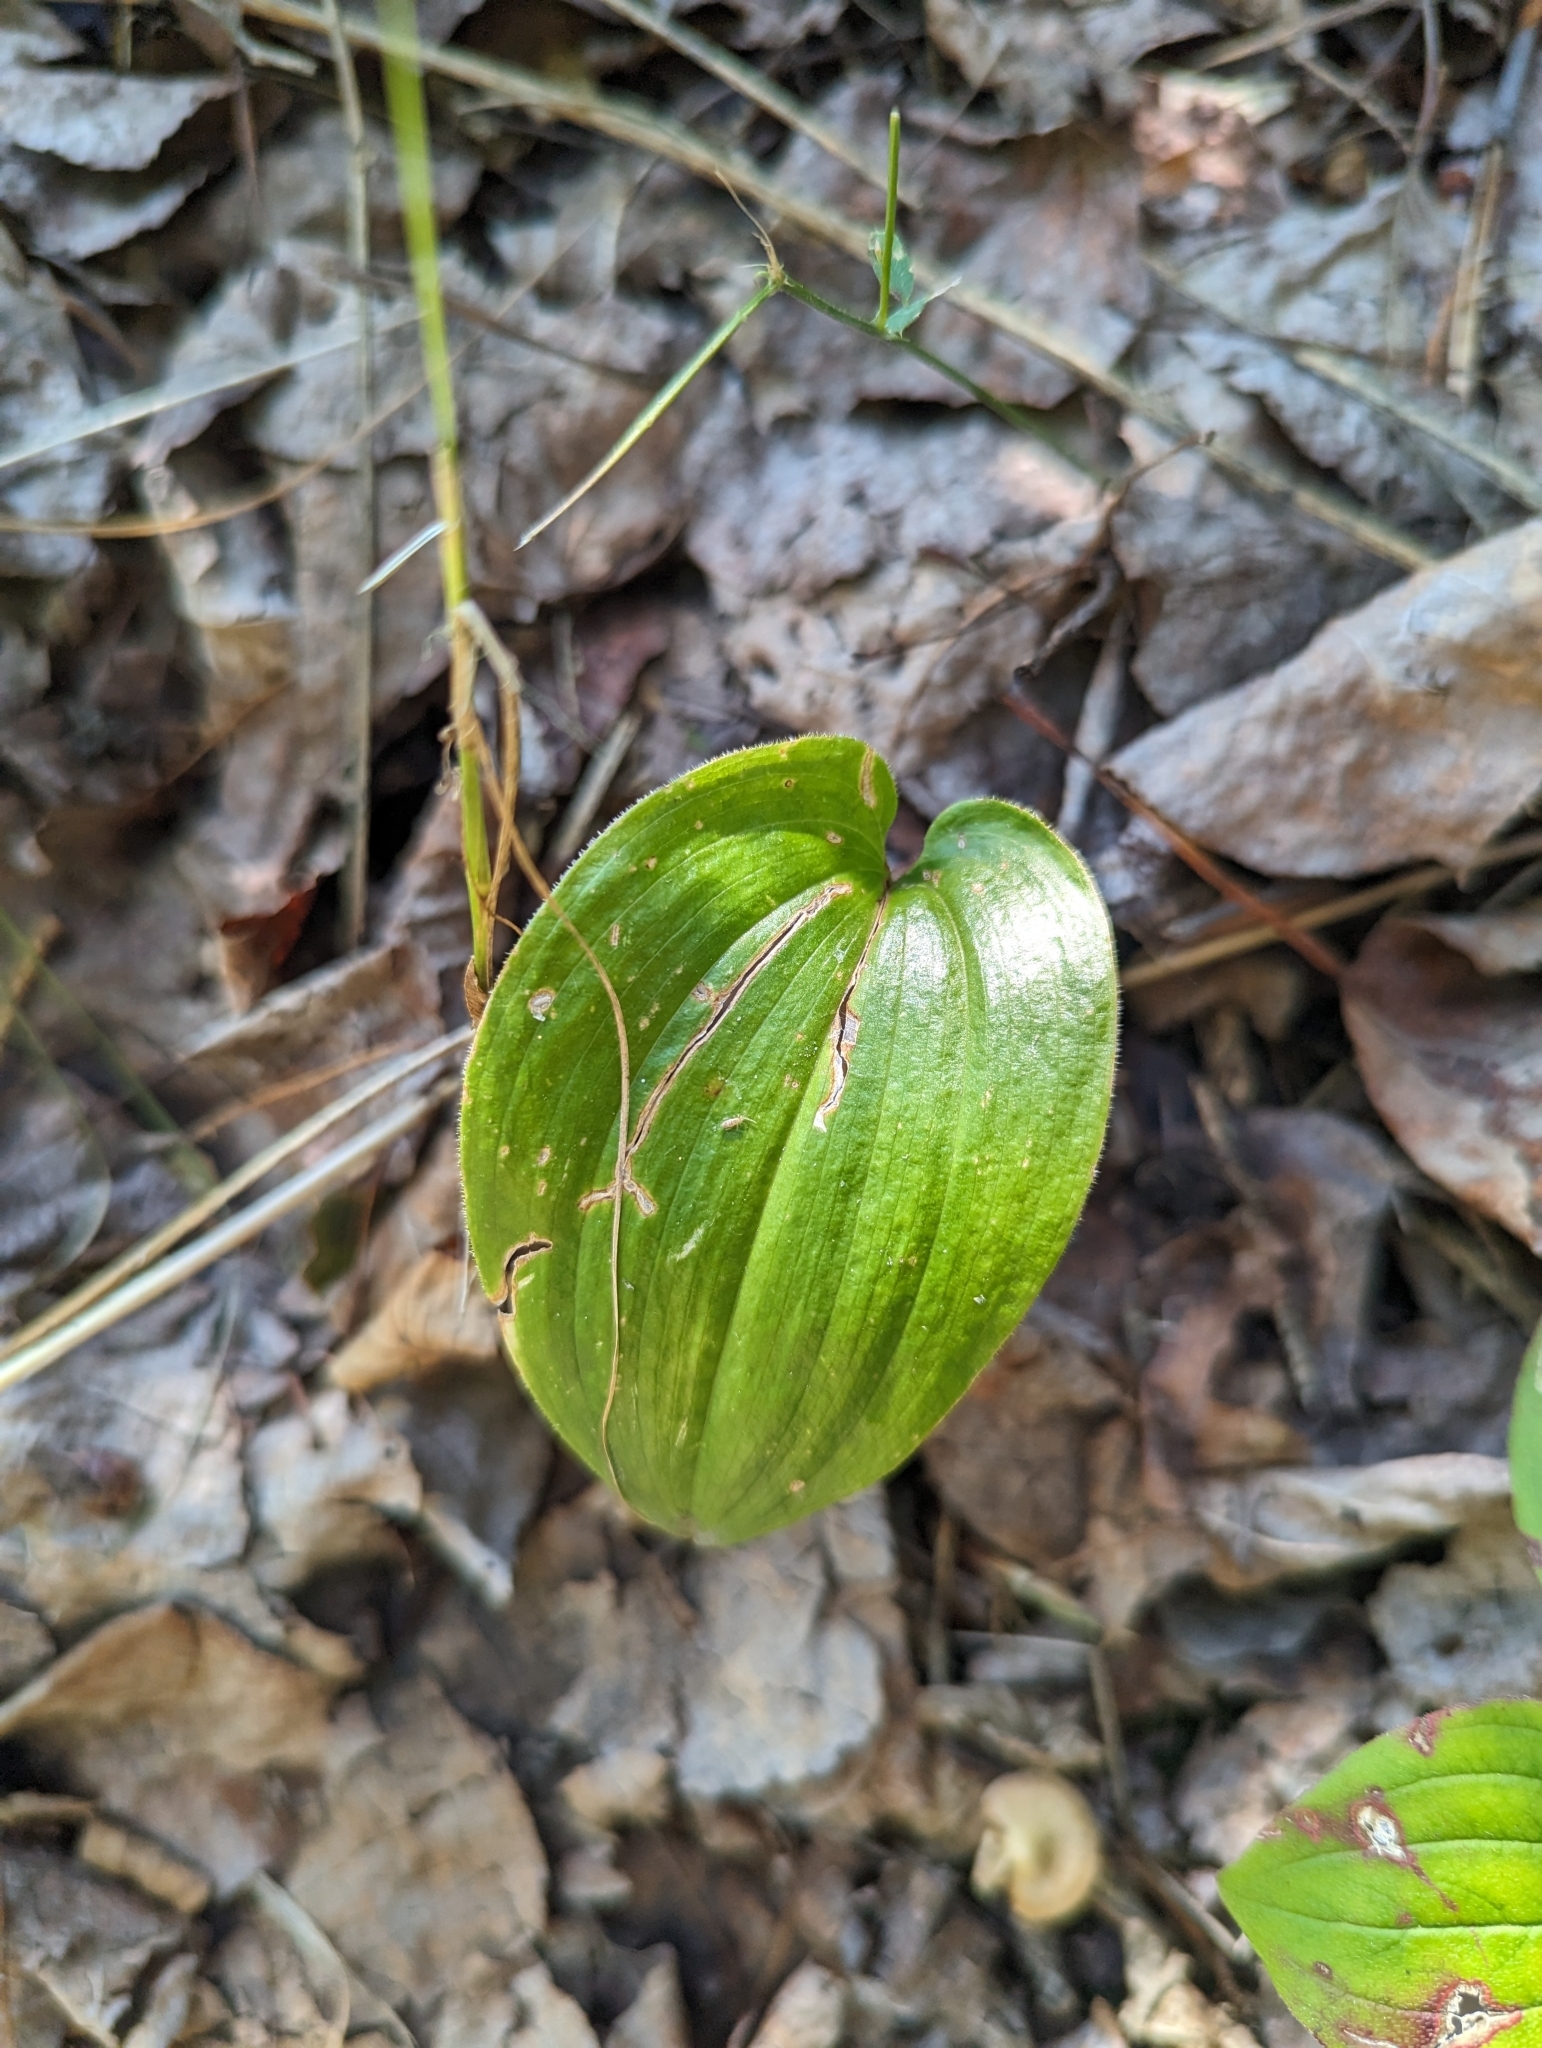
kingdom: Plantae
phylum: Tracheophyta
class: Liliopsida
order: Asparagales
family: Asparagaceae
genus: Maianthemum
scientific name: Maianthemum canadense
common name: False lily-of-the-valley
